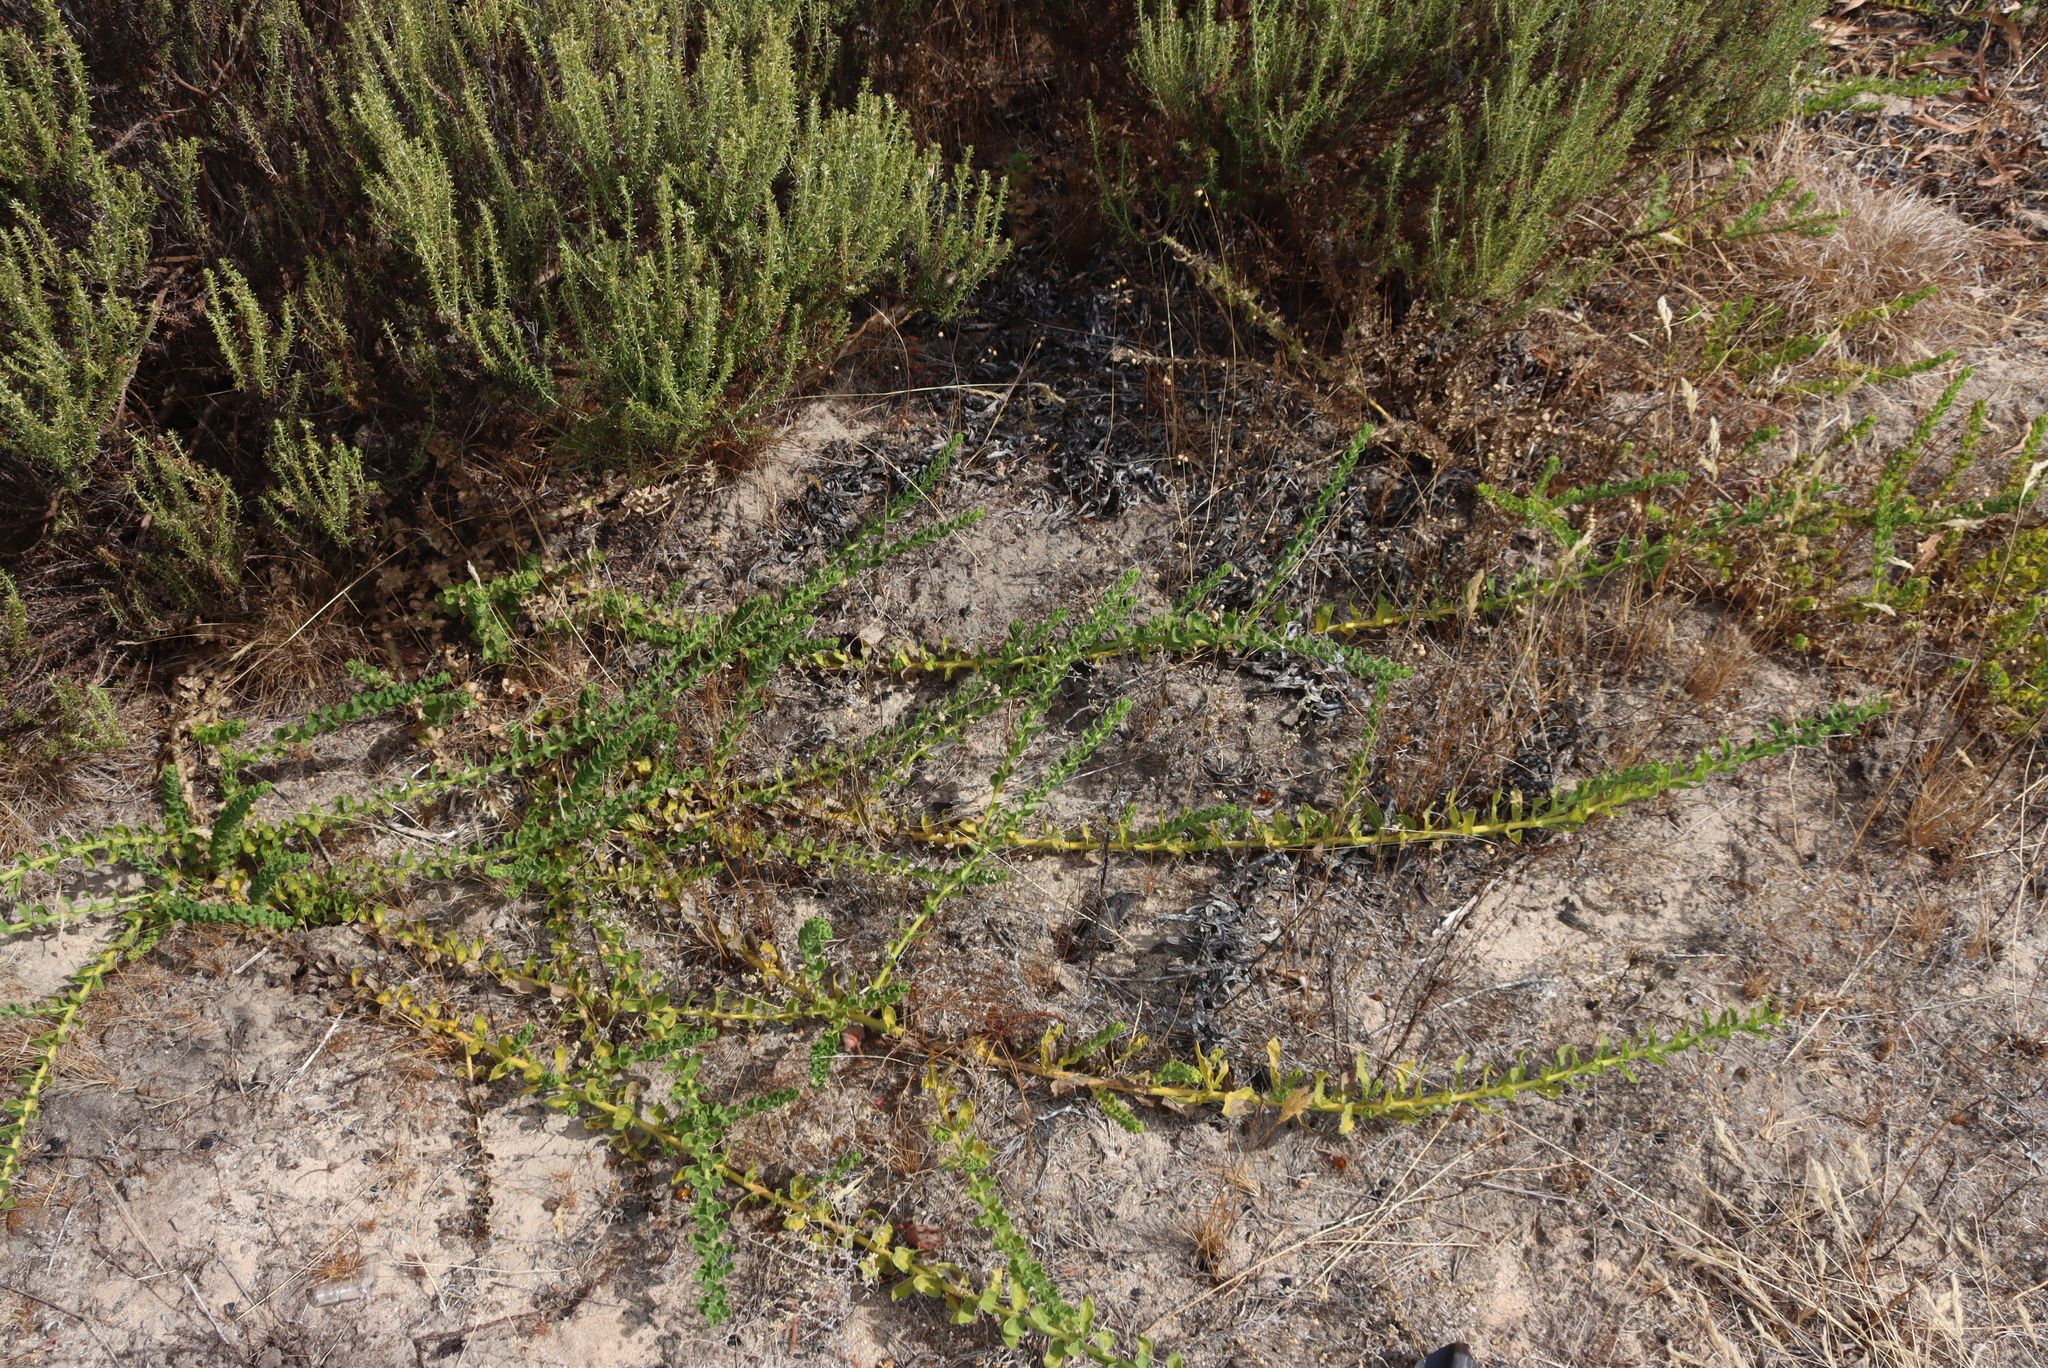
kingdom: Plantae
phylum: Tracheophyta
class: Magnoliopsida
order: Lamiales
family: Scrophulariaceae
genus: Oftia
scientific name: Oftia africana
